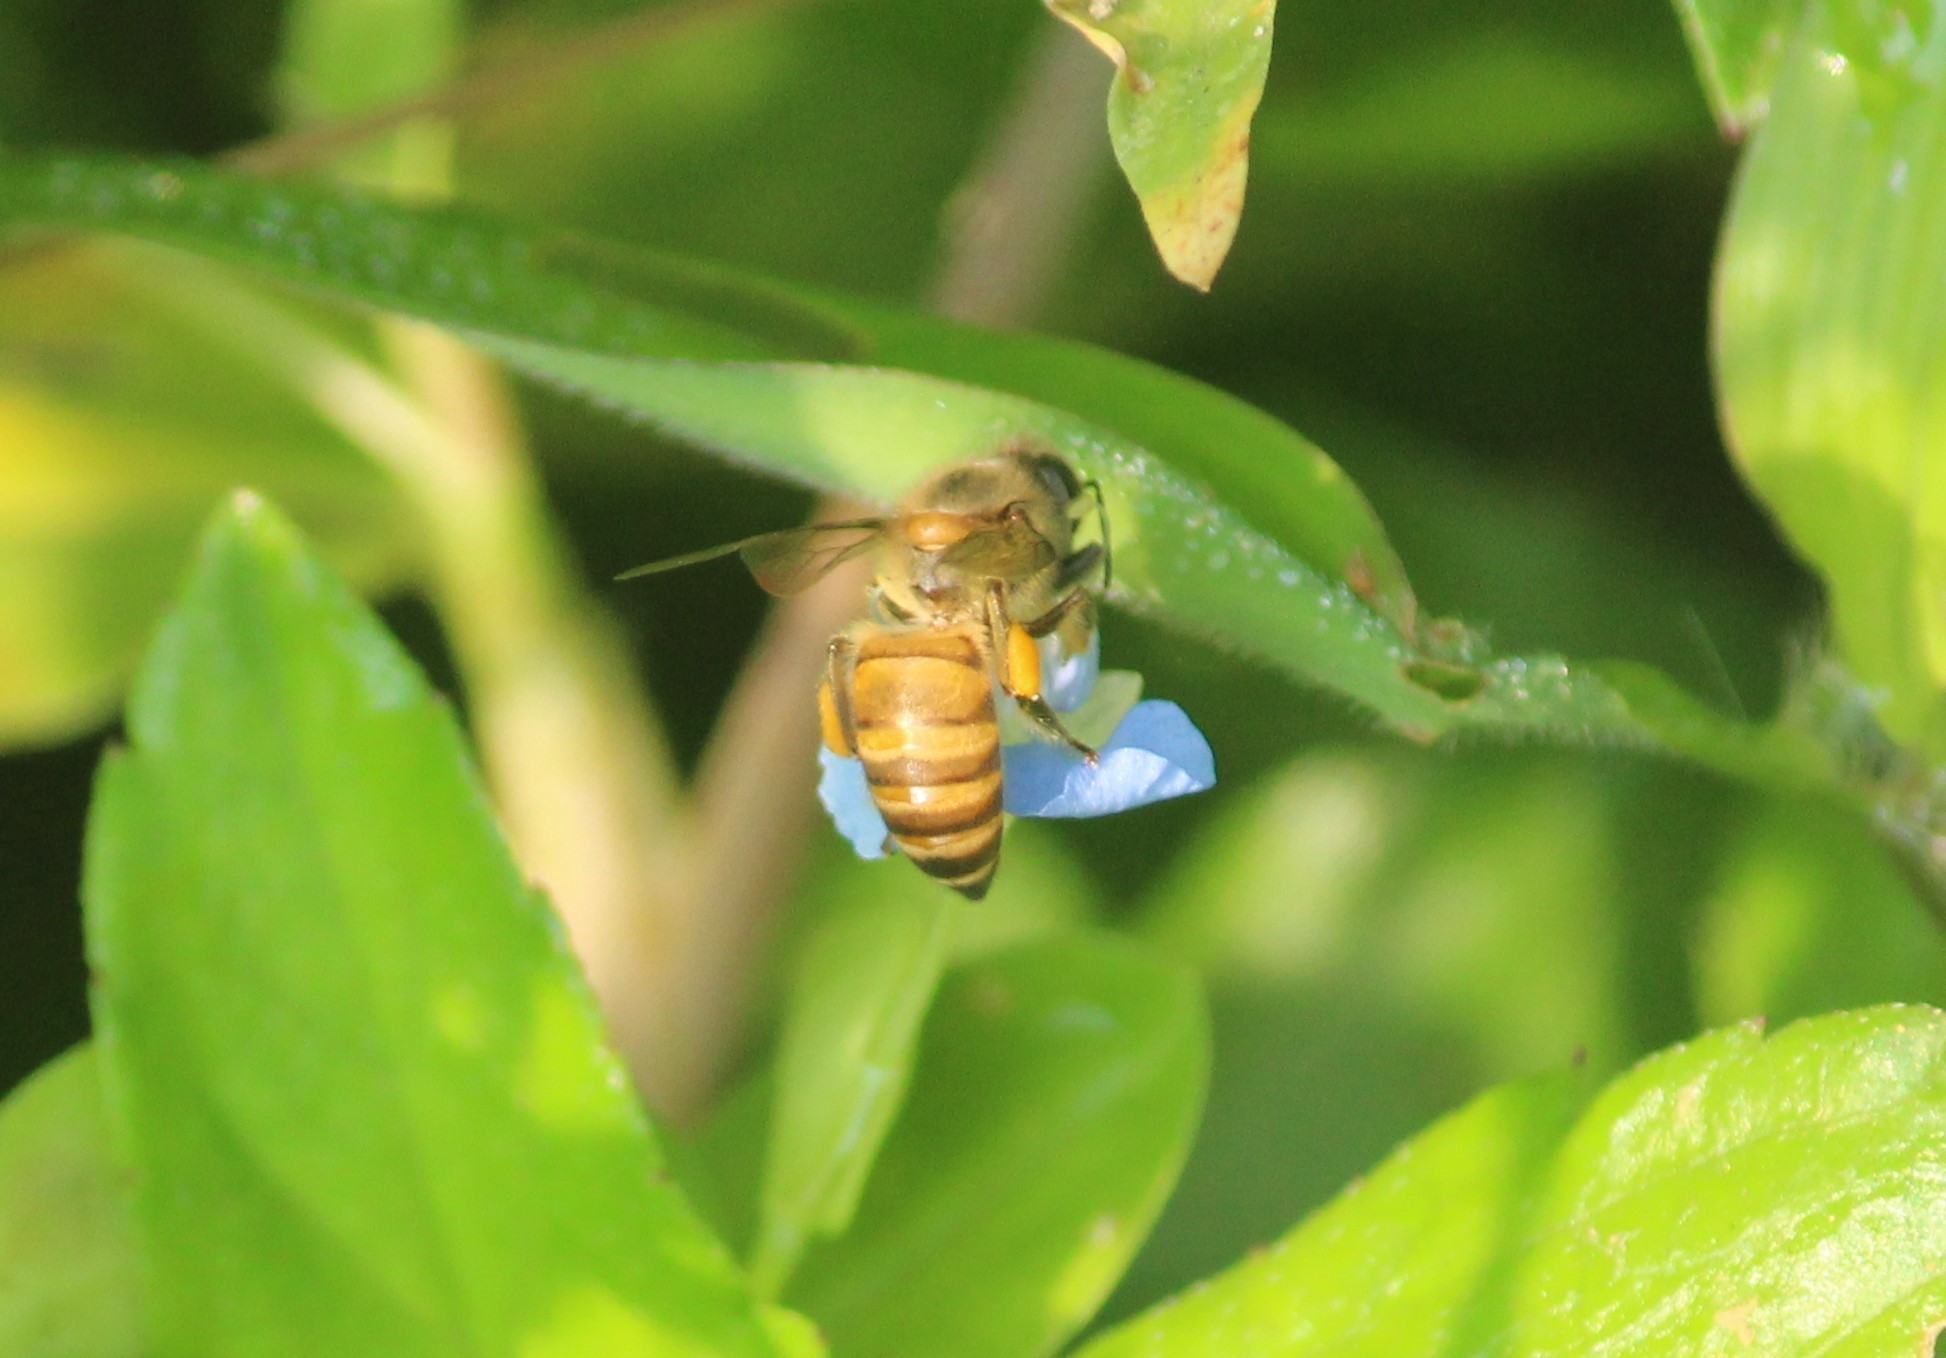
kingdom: Animalia
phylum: Arthropoda
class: Insecta
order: Hymenoptera
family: Apidae
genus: Apis
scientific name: Apis cerana
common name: Honey bee
